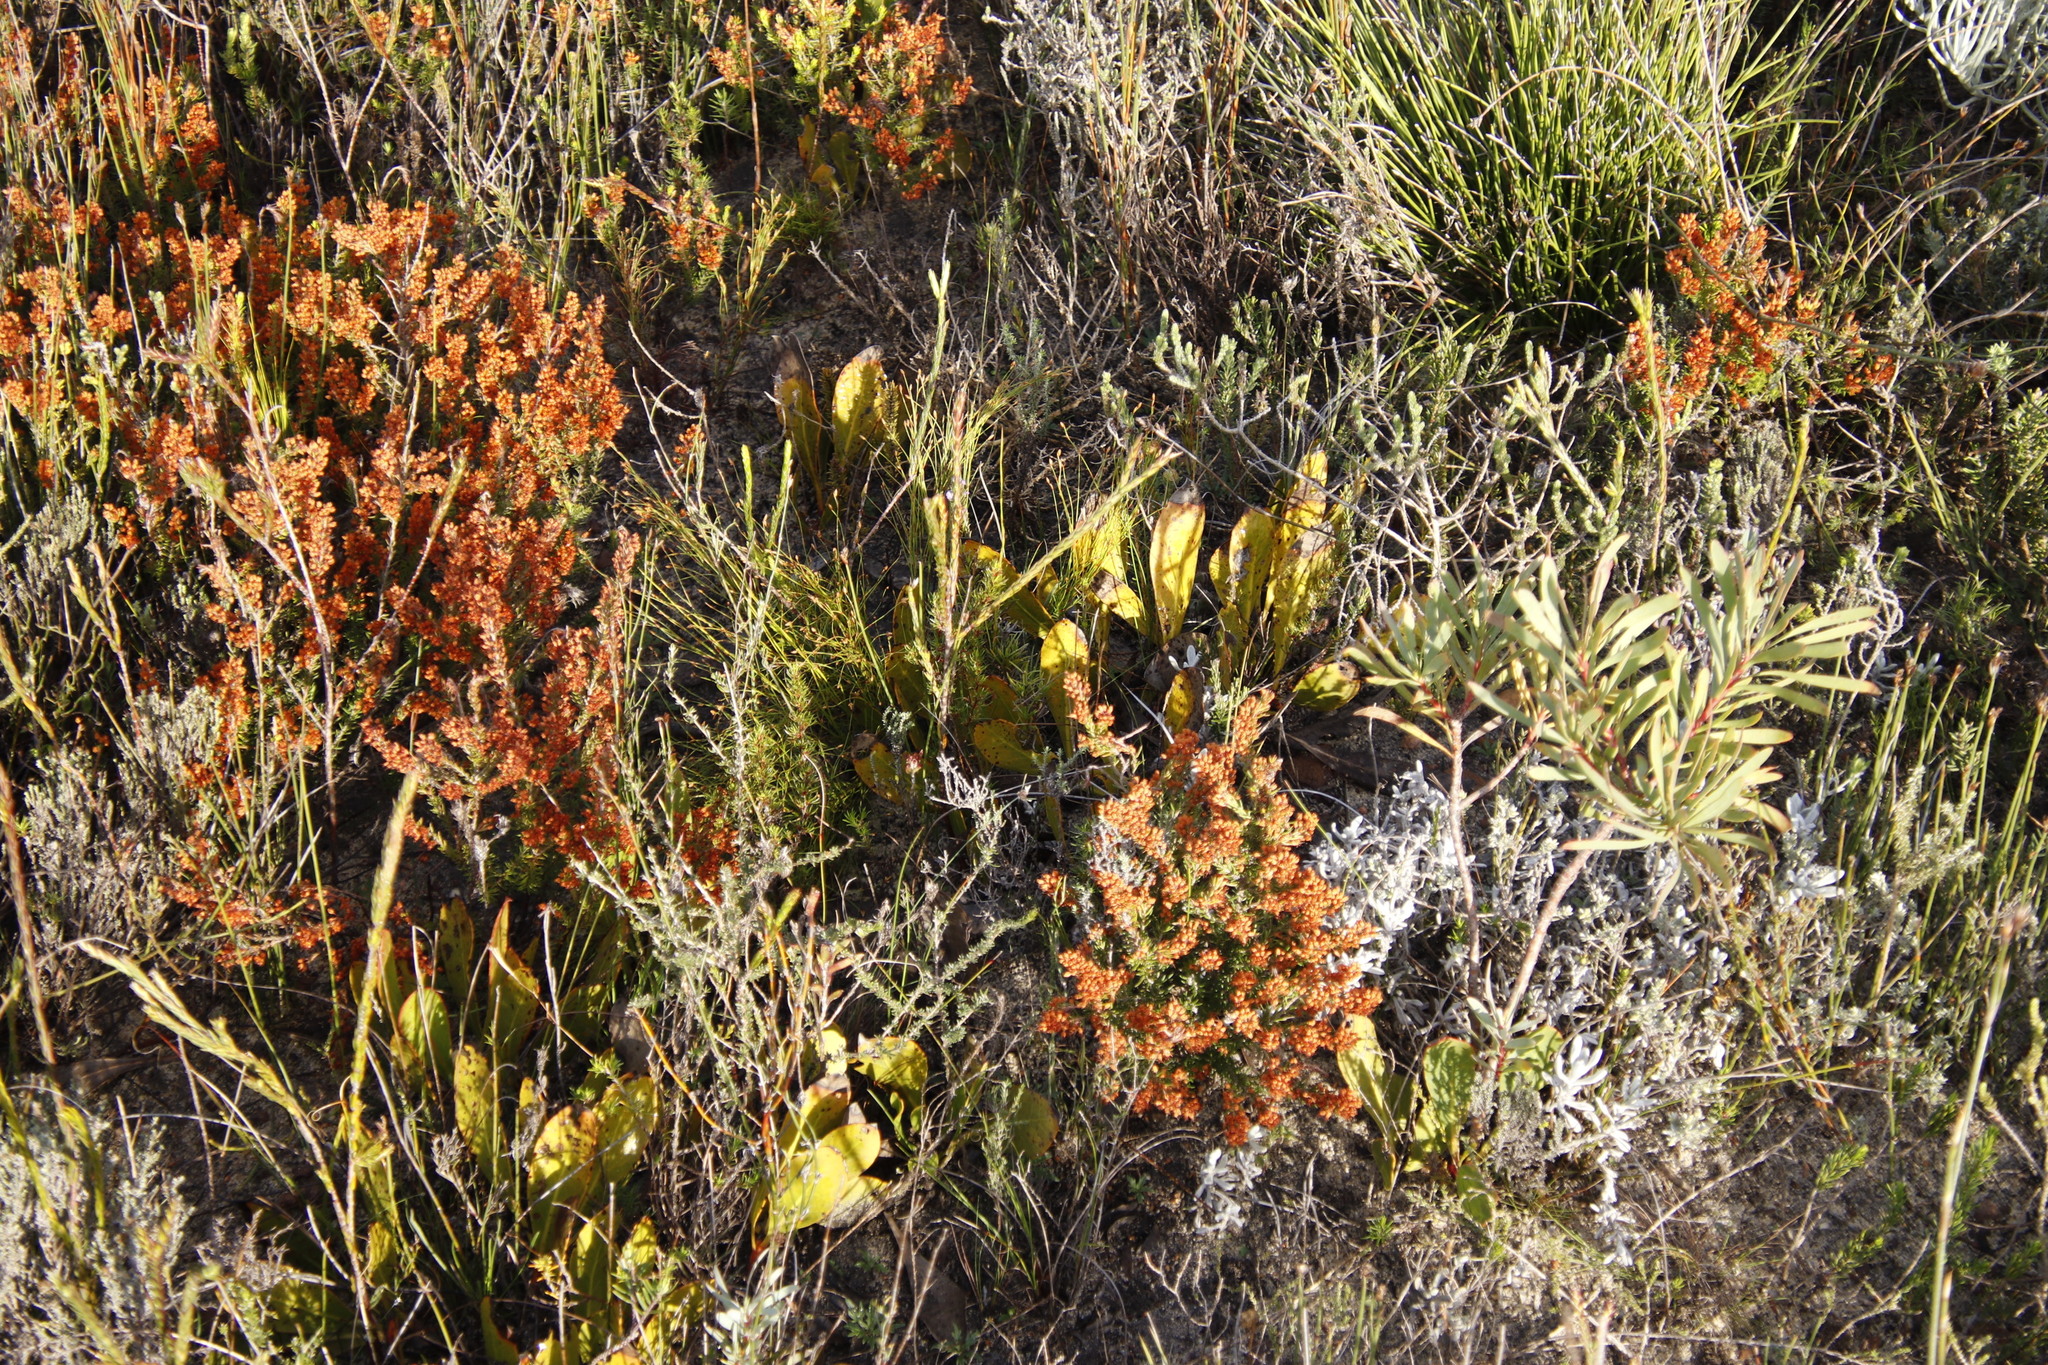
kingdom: Plantae
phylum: Tracheophyta
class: Magnoliopsida
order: Proteales
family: Proteaceae
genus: Protea
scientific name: Protea acaulos
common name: Common ground sugarbush
